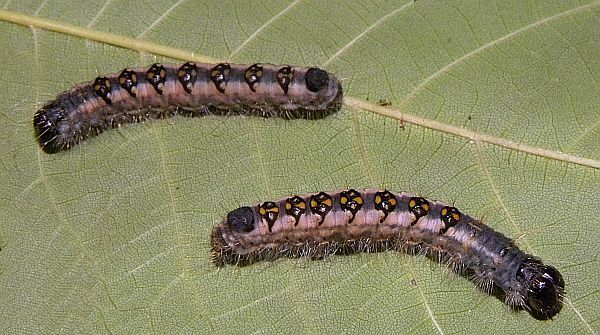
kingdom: Animalia
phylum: Arthropoda
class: Insecta
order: Lepidoptera
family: Noctuidae
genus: Acronicta
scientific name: Acronicta interrupta
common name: Interrupted dagger
